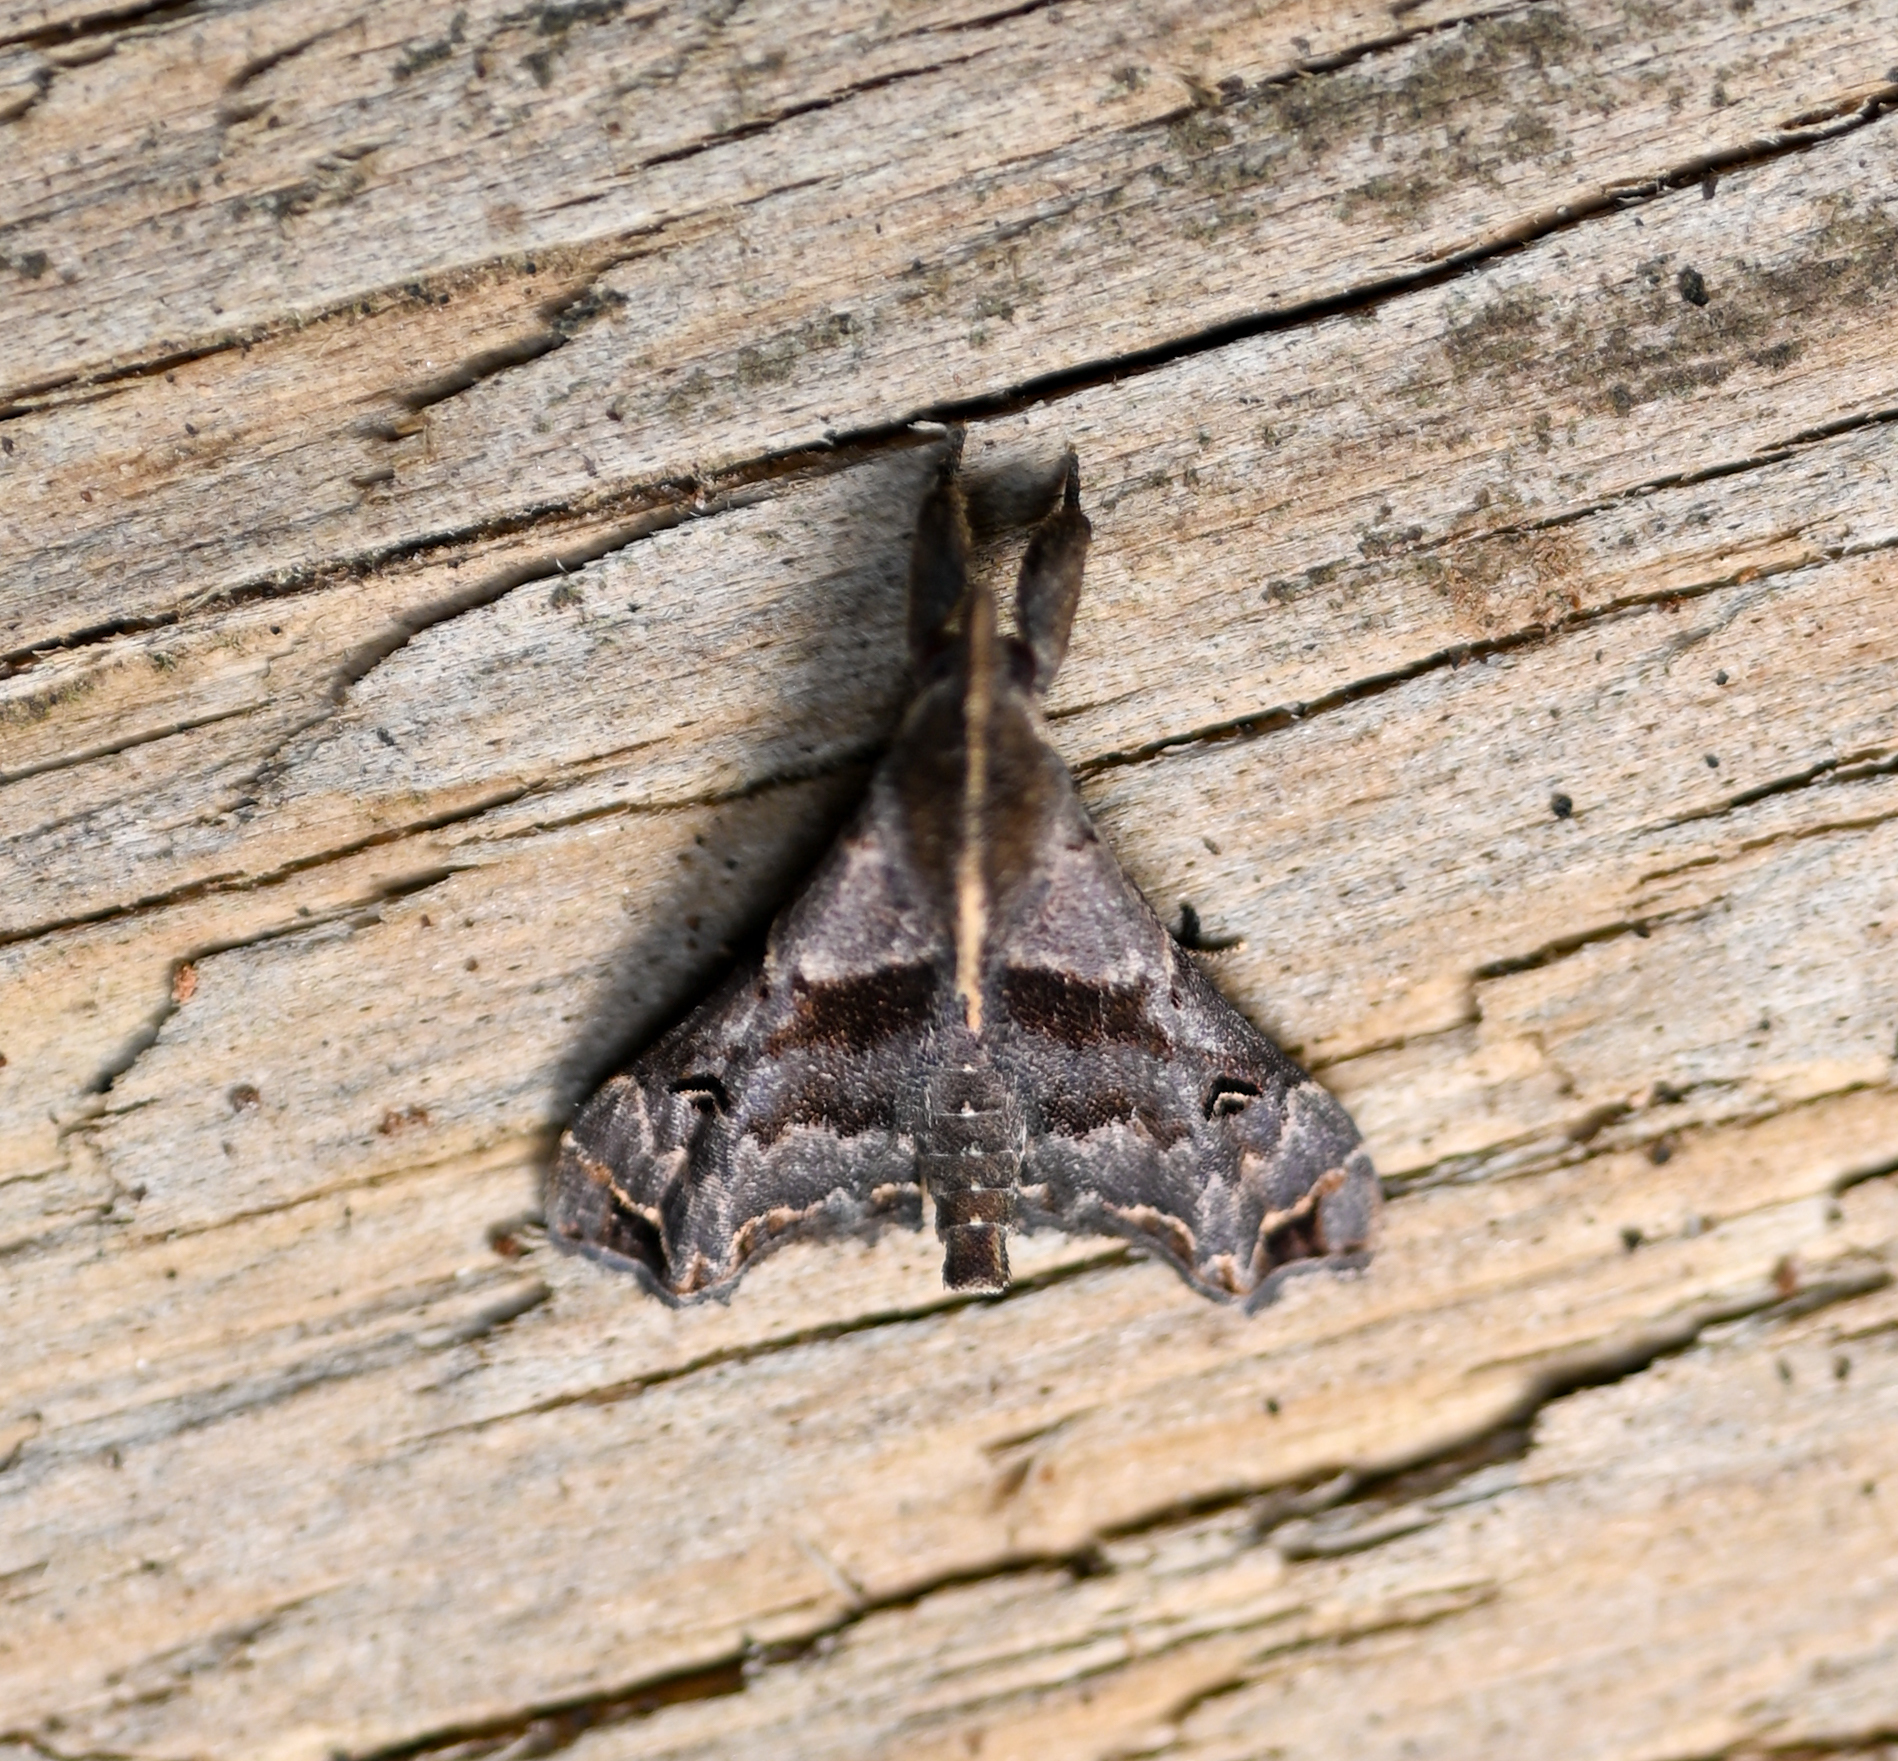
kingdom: Animalia
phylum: Arthropoda
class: Insecta
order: Lepidoptera
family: Erebidae
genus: Palthis
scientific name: Palthis asopialis
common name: Faint-spotted palthis moth
